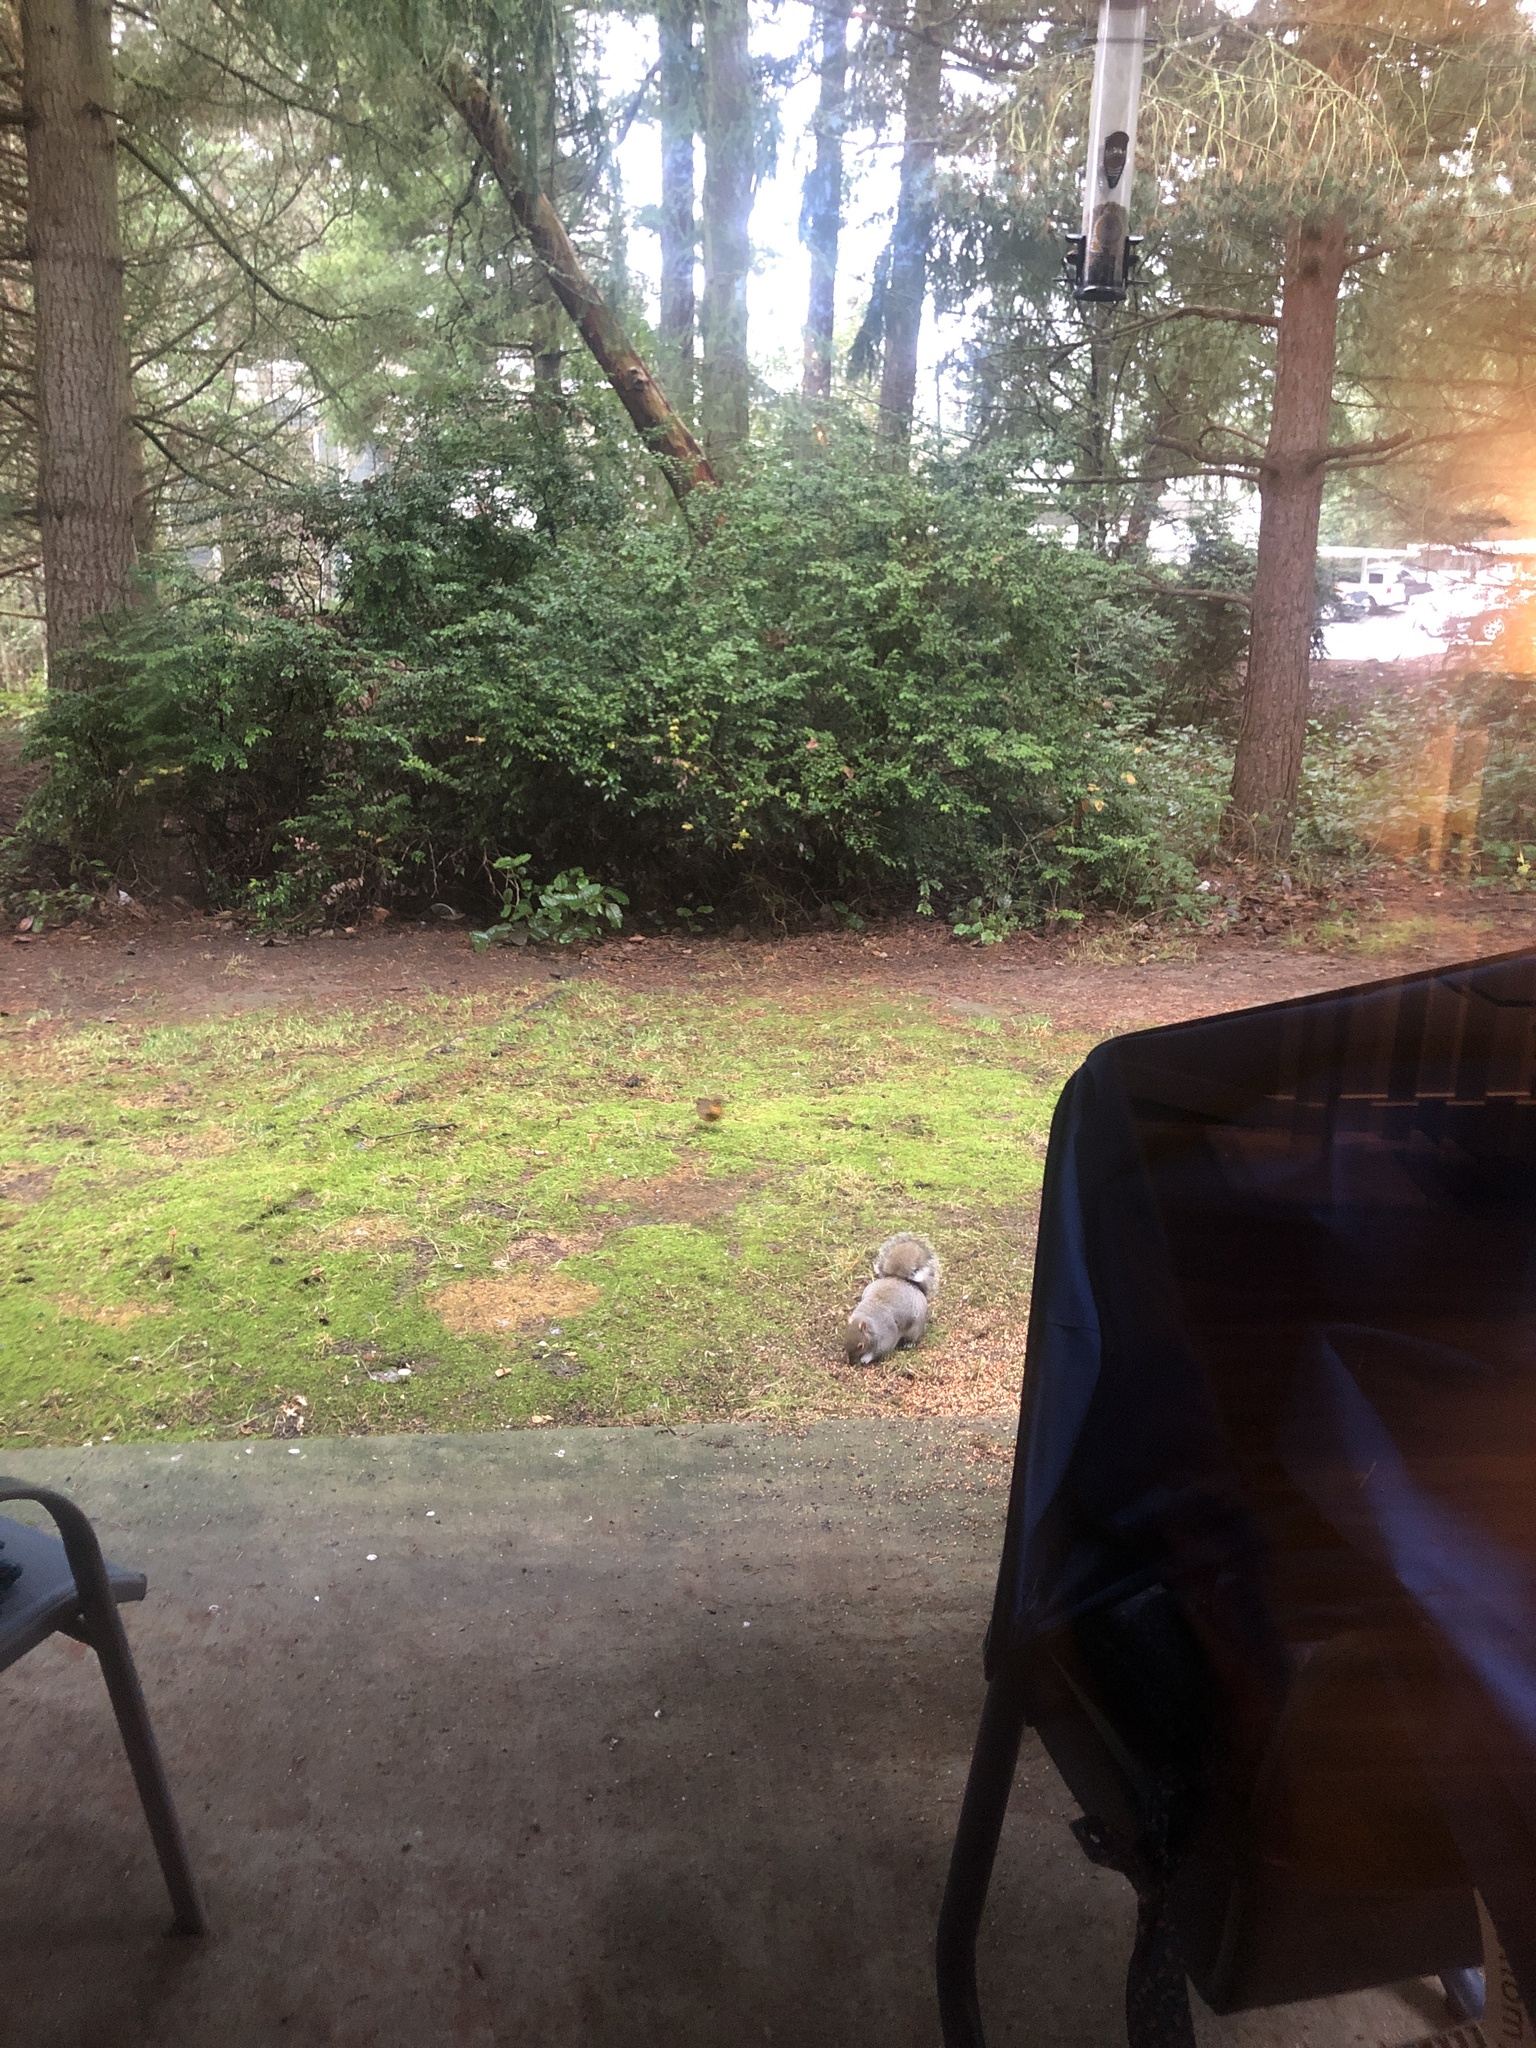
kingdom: Animalia
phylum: Chordata
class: Mammalia
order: Rodentia
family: Sciuridae
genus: Sciurus
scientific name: Sciurus carolinensis
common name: Eastern gray squirrel
